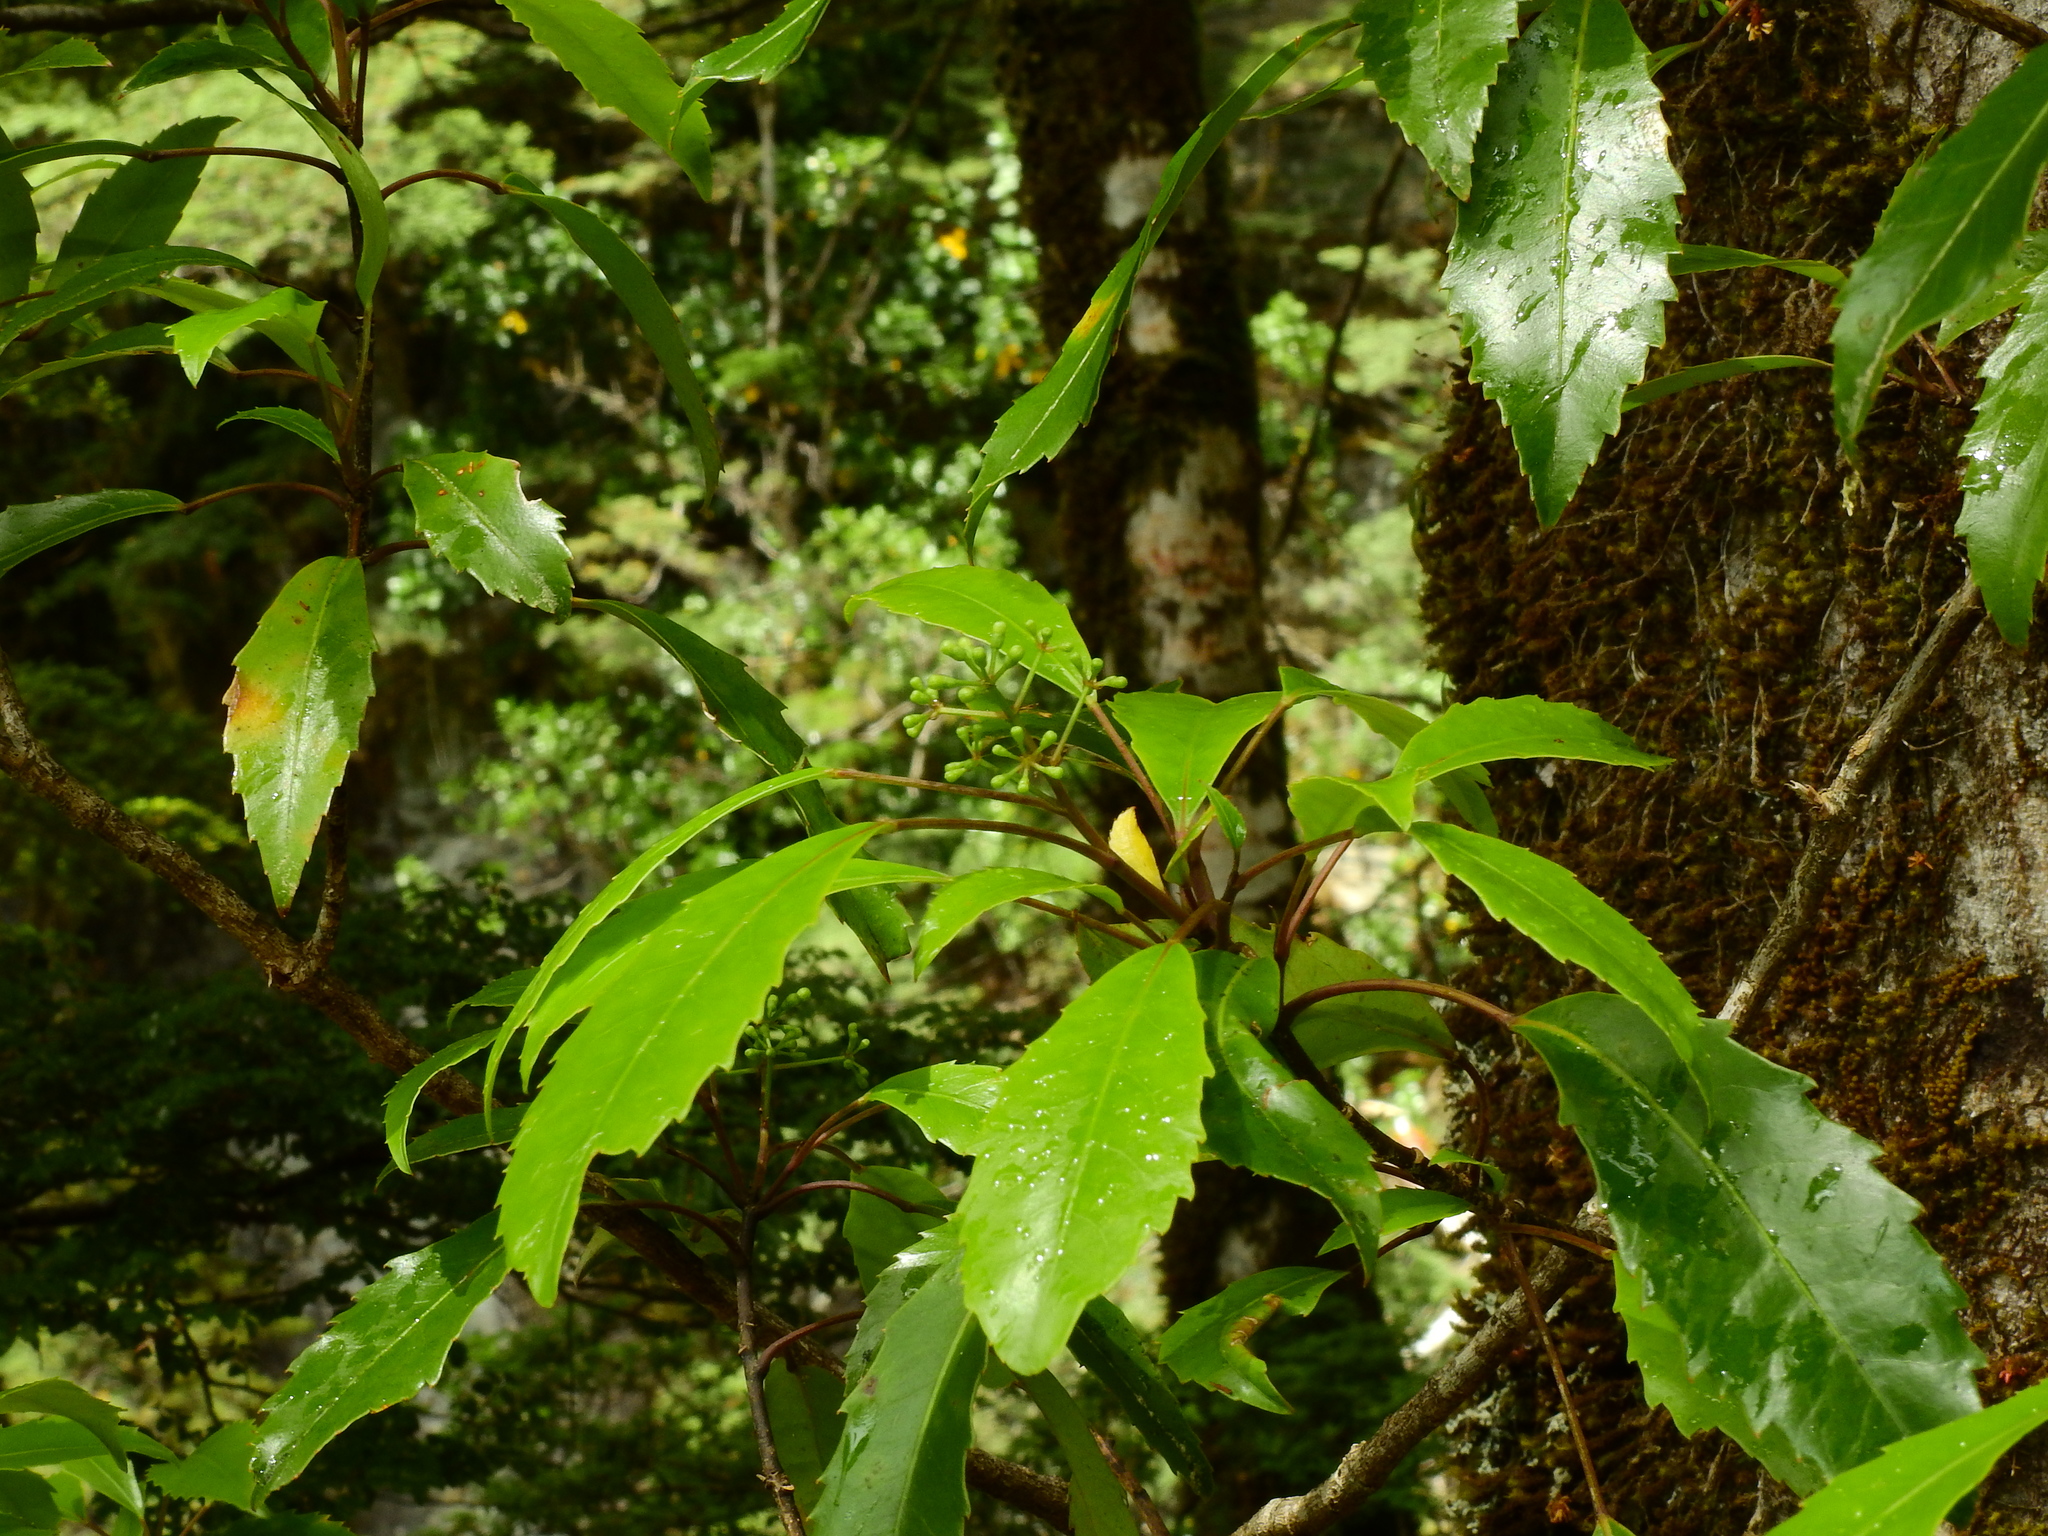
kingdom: Plantae
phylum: Tracheophyta
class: Magnoliopsida
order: Apiales
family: Araliaceae
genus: Raukaua
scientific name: Raukaua simplex
